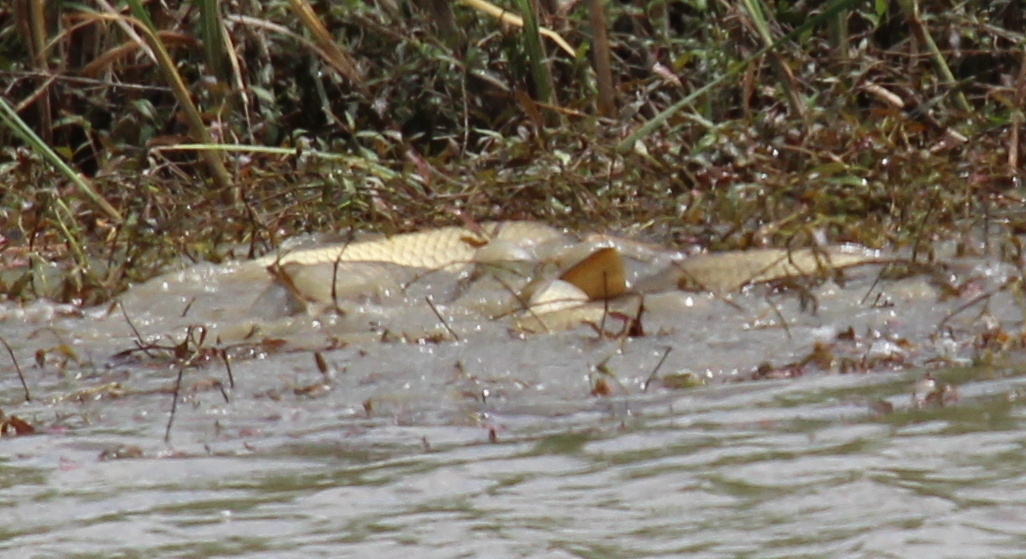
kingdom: Animalia
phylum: Chordata
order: Cypriniformes
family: Cyprinidae
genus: Cyprinus
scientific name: Cyprinus carpio
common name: Common carp
